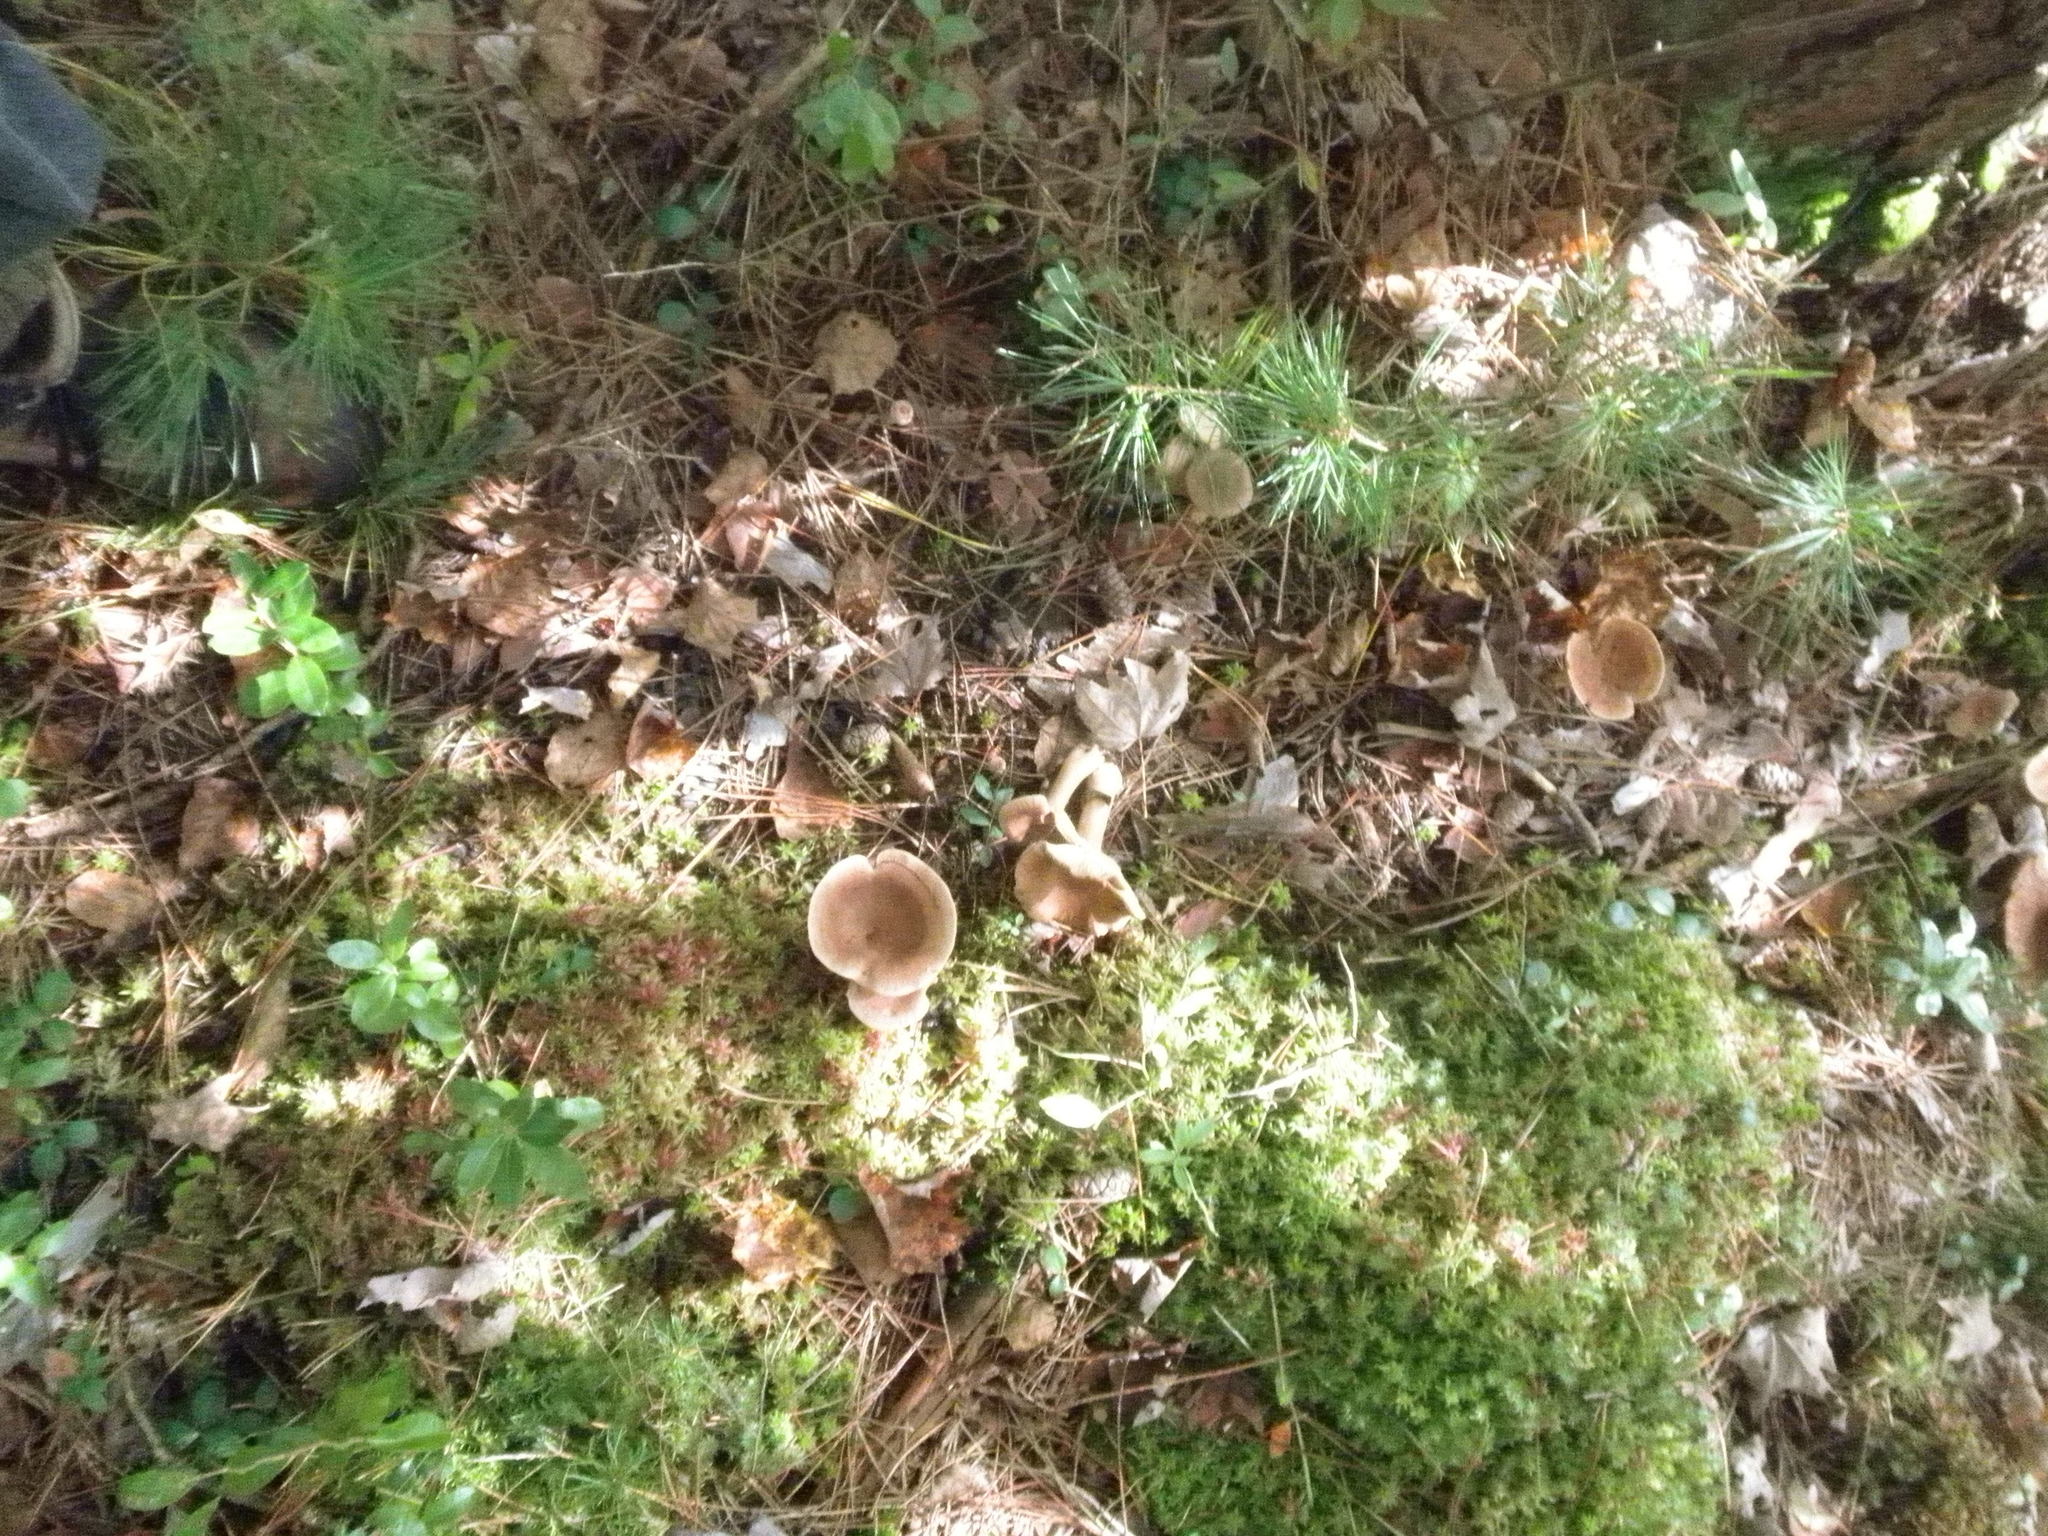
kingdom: Fungi
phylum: Basidiomycota
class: Agaricomycetes
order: Russulales
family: Russulaceae
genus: Lactarius
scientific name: Lactarius helvus
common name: Fenugreek milkcap
